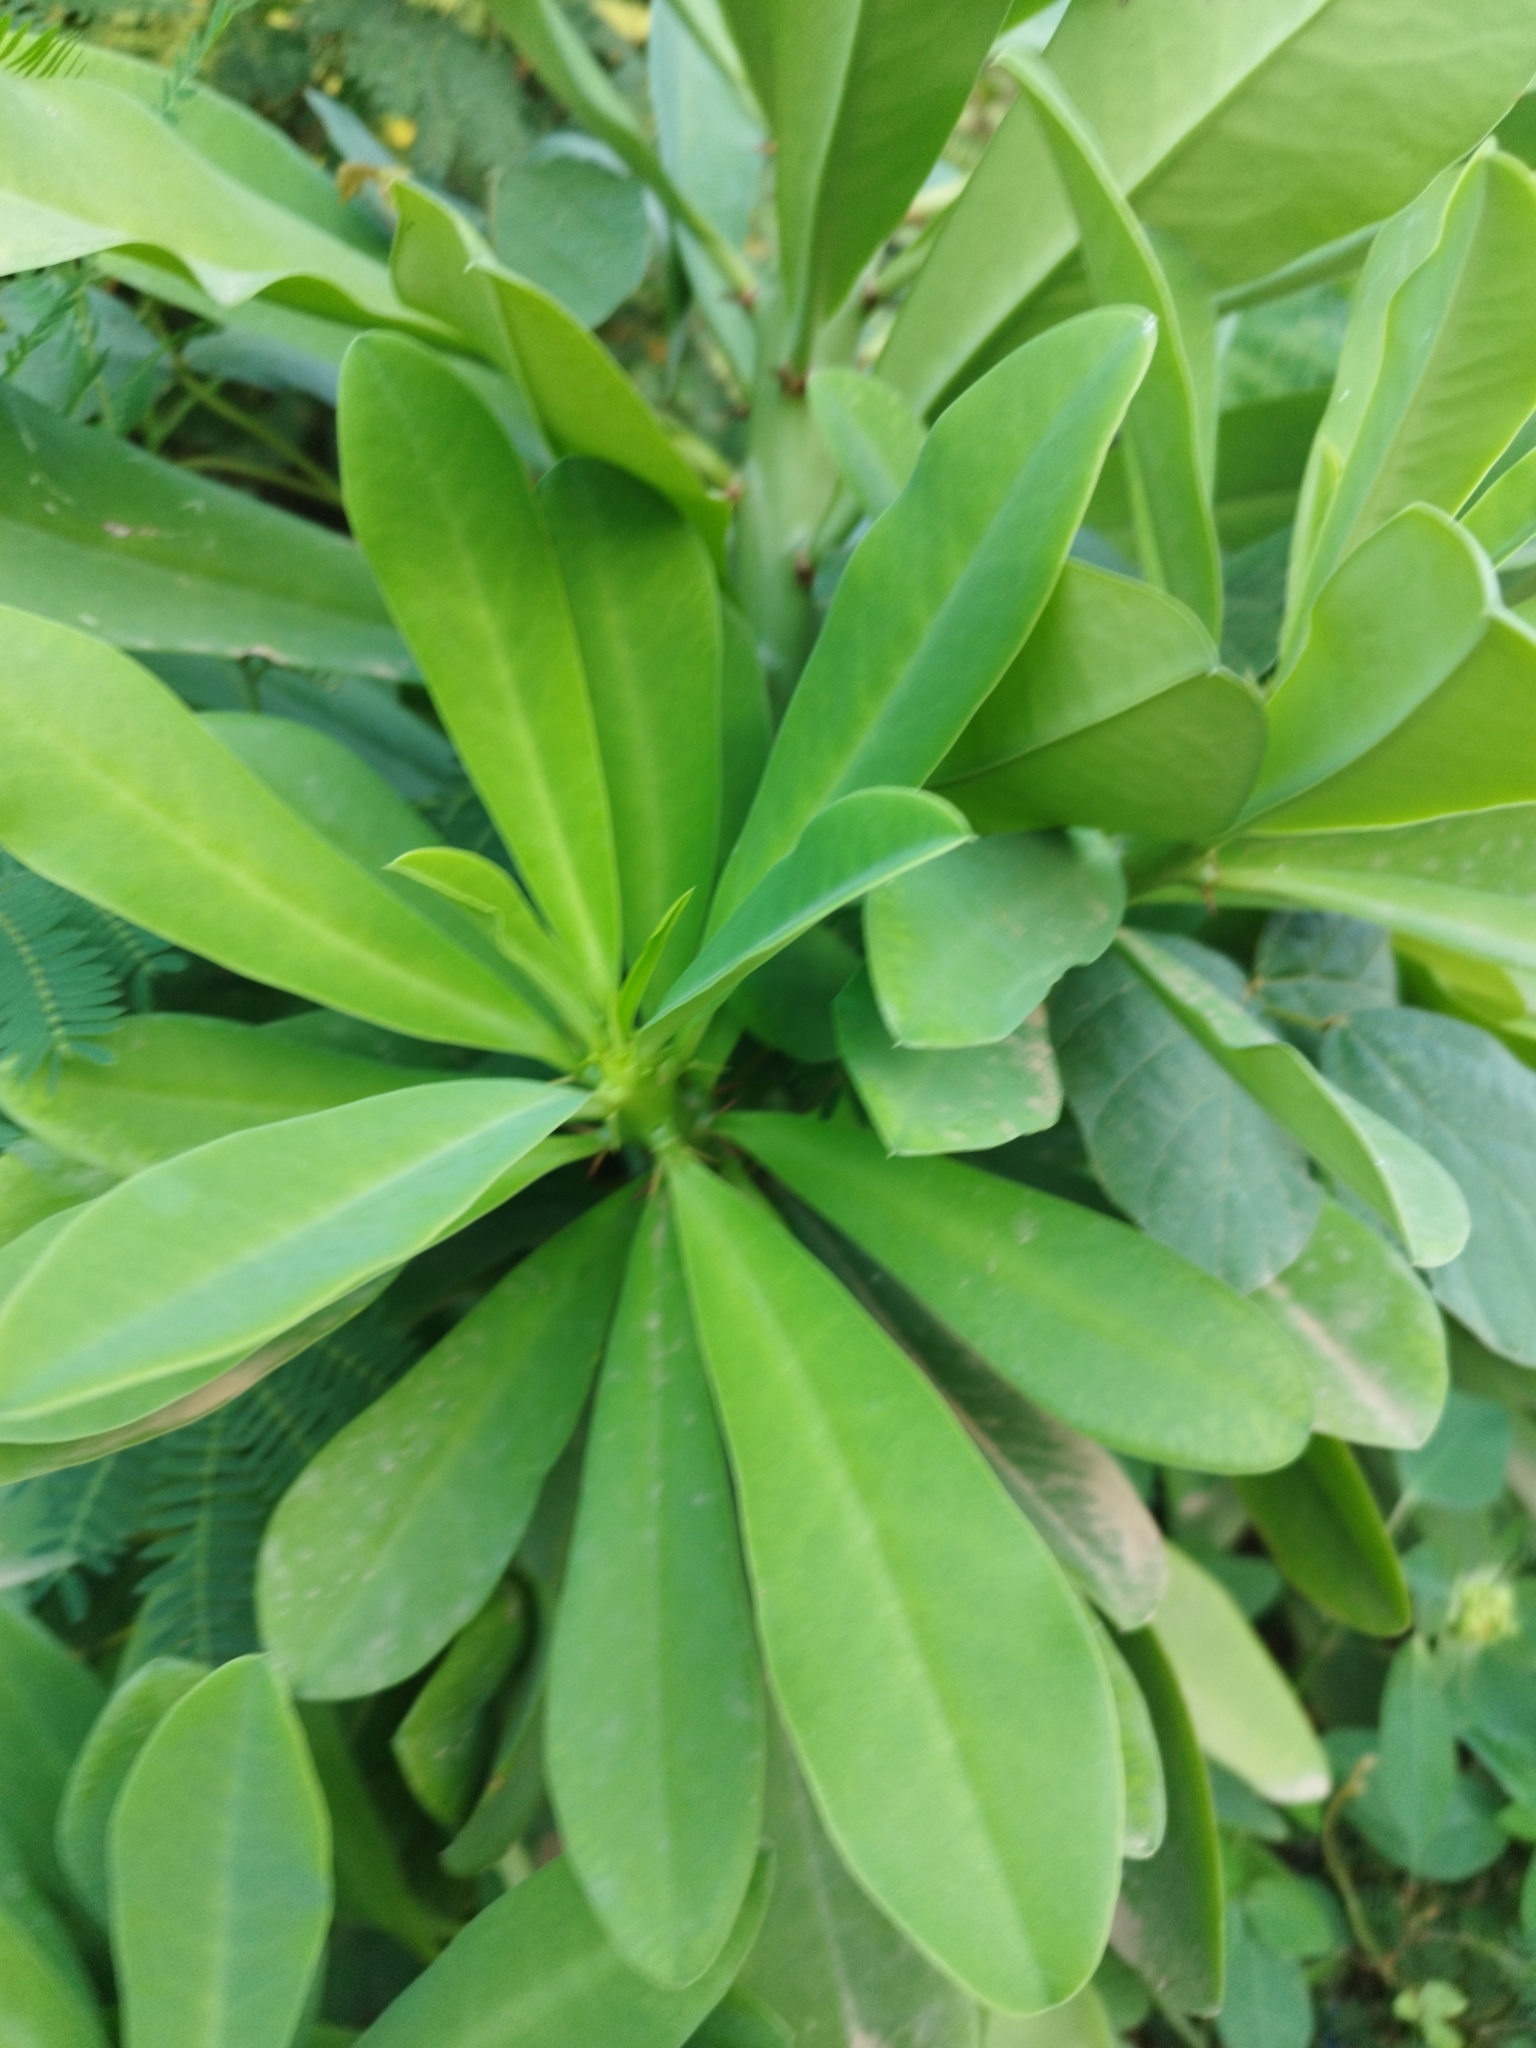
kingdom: Plantae
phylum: Tracheophyta
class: Magnoliopsida
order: Malpighiales
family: Euphorbiaceae
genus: Euphorbia
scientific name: Euphorbia neriifolia
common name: Hedge euphorbia
